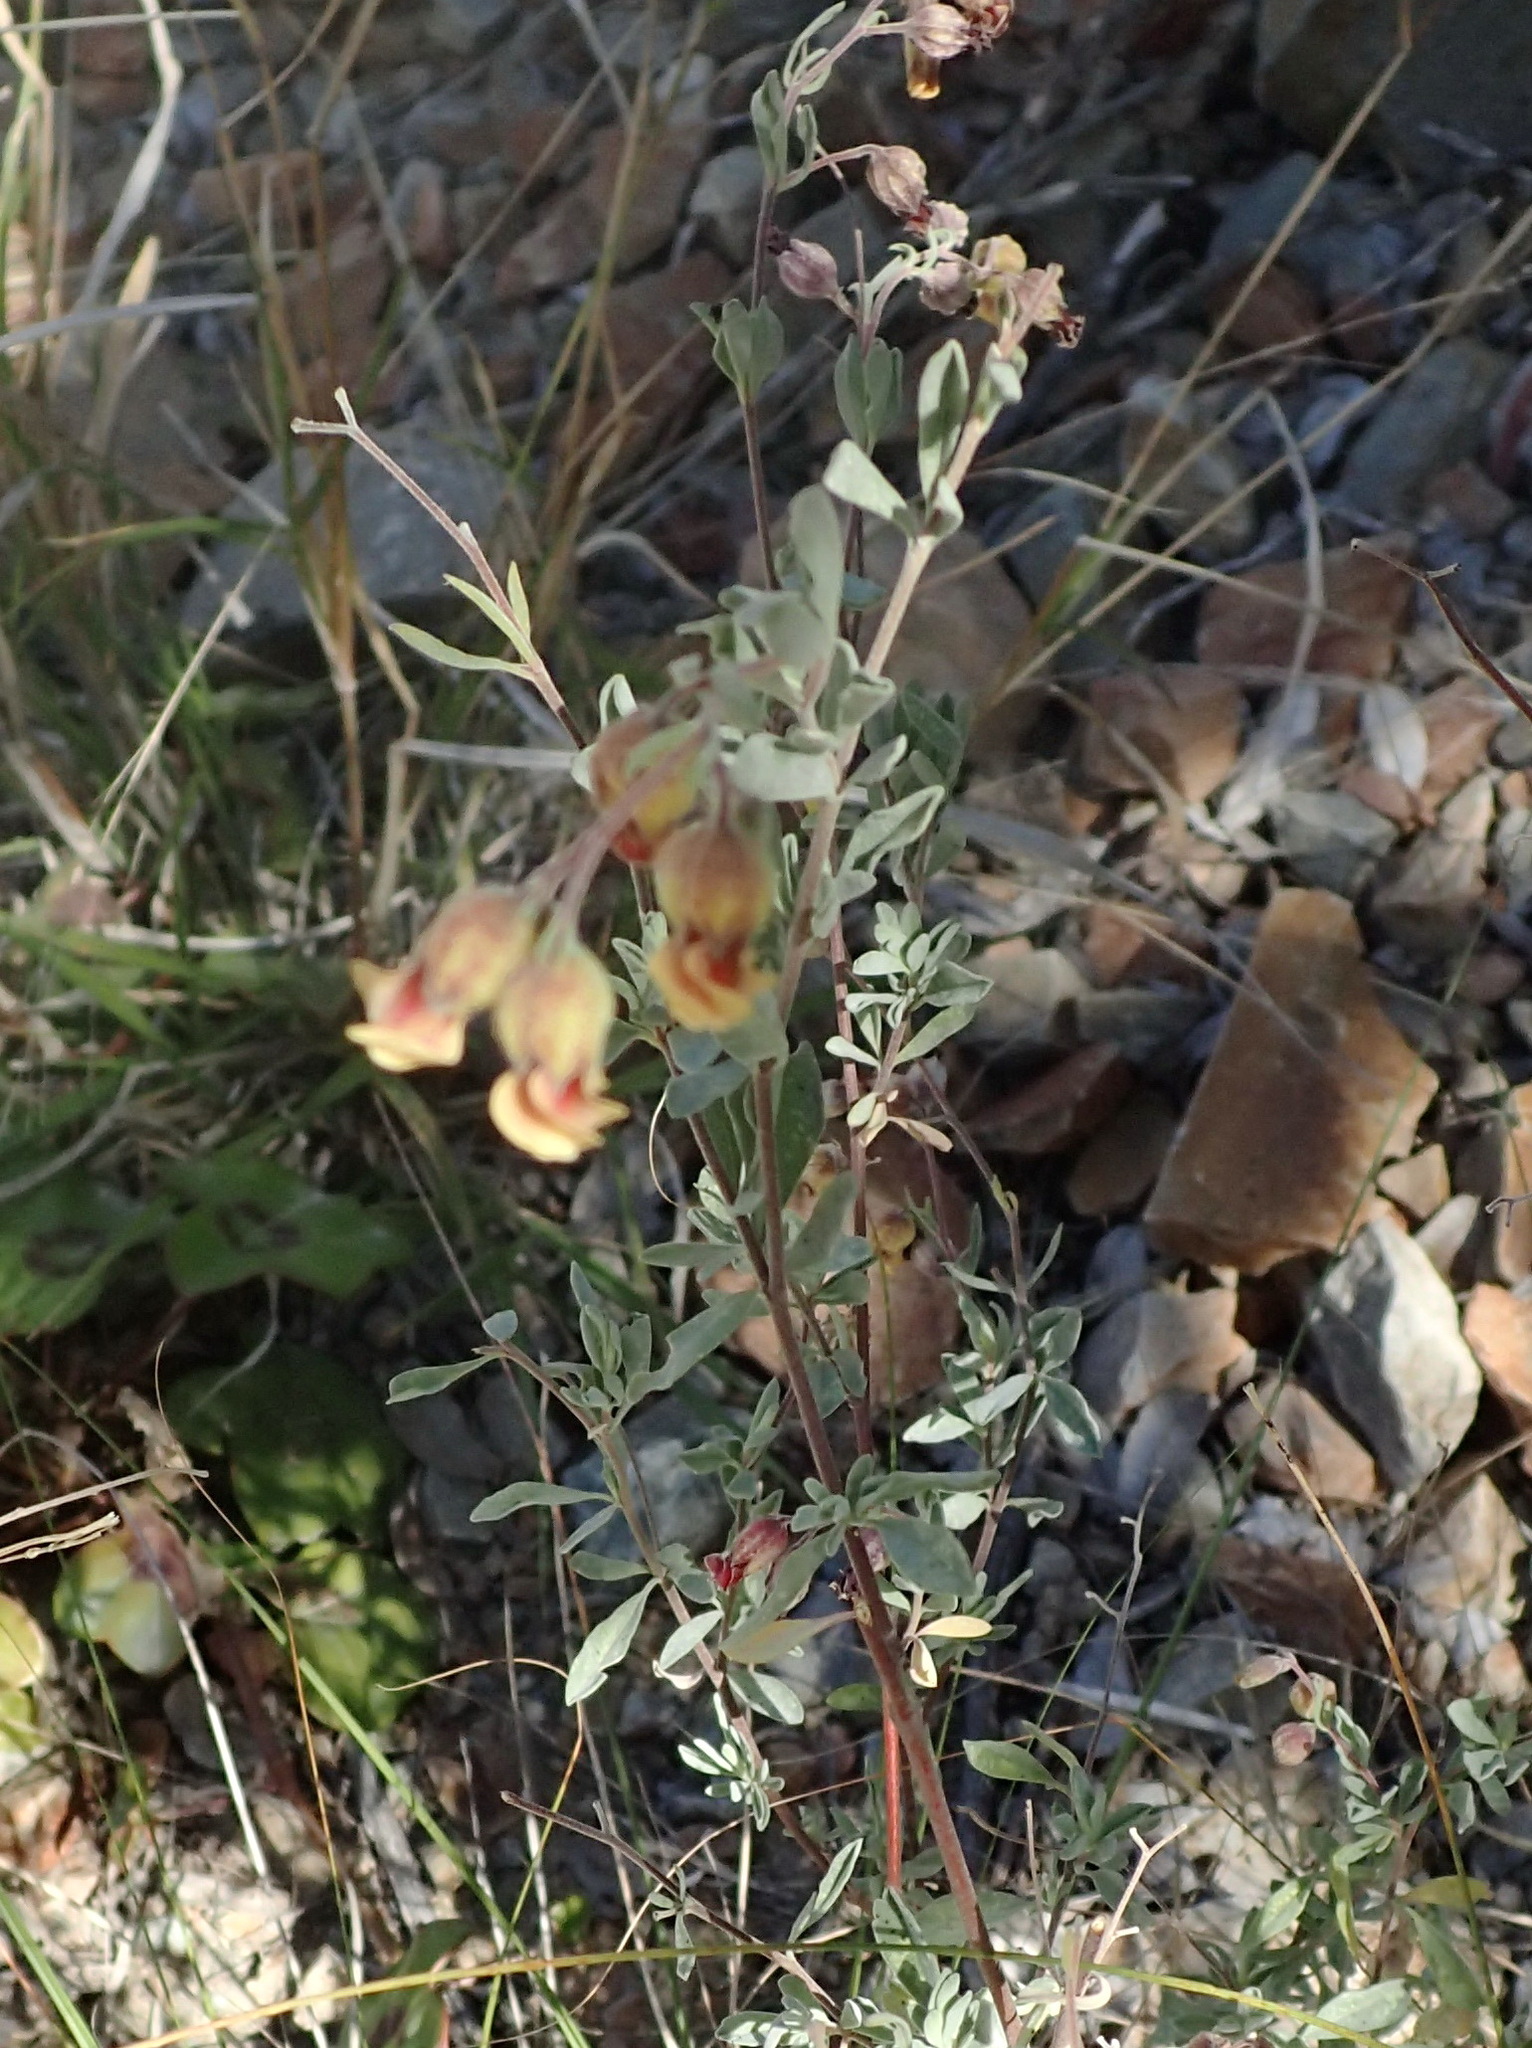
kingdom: Plantae
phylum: Tracheophyta
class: Magnoliopsida
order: Malvales
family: Malvaceae
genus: Hermannia
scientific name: Hermannia gracilis
